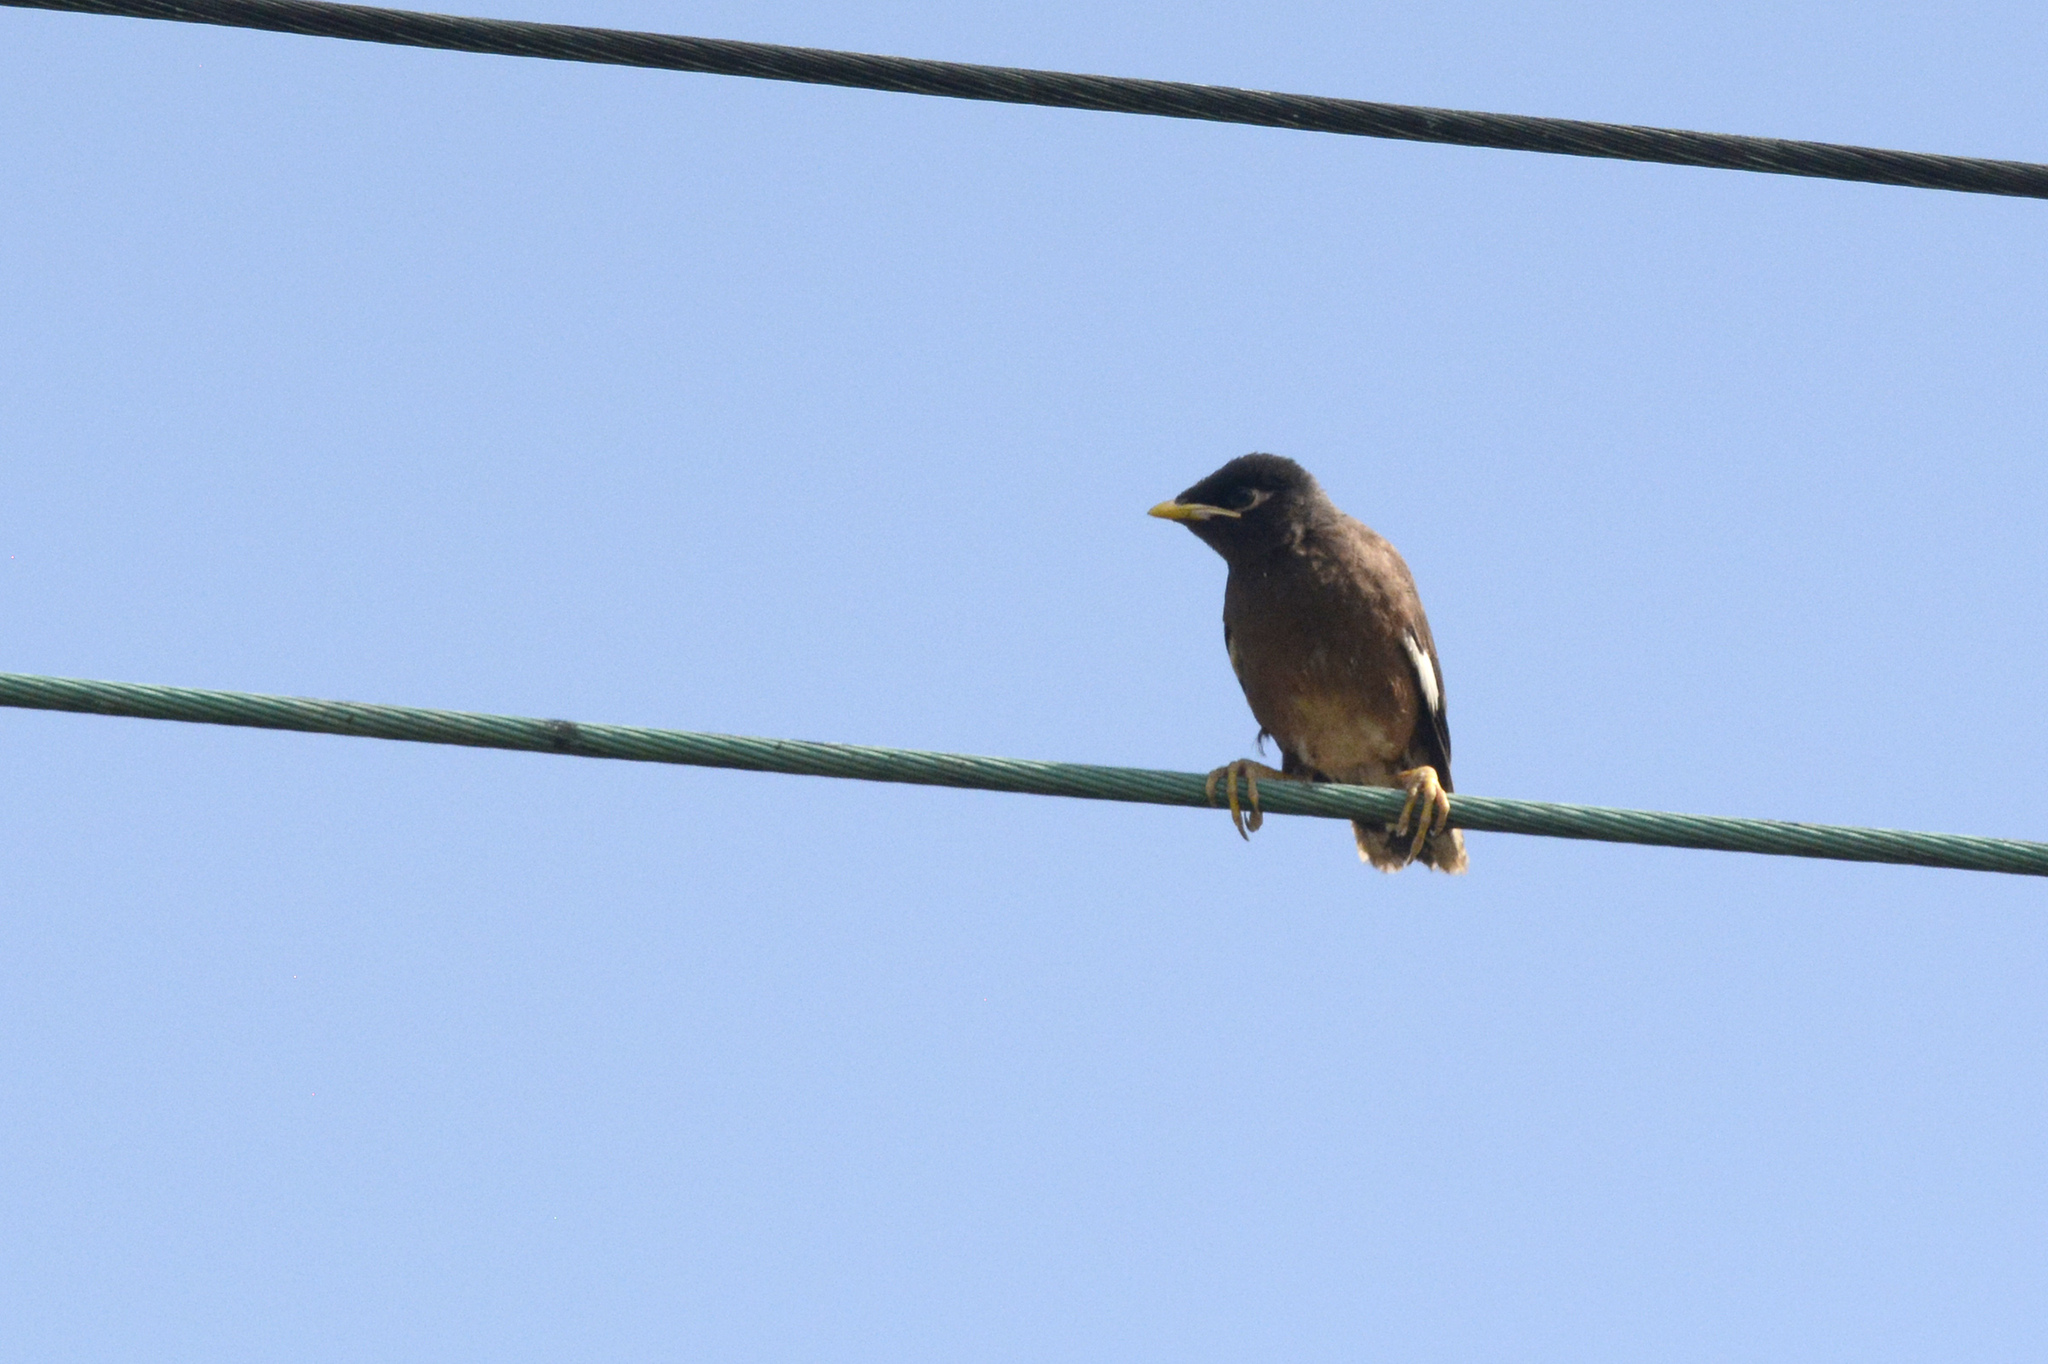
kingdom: Animalia
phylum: Chordata
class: Aves
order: Passeriformes
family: Sturnidae
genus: Acridotheres
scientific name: Acridotheres tristis
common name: Common myna
